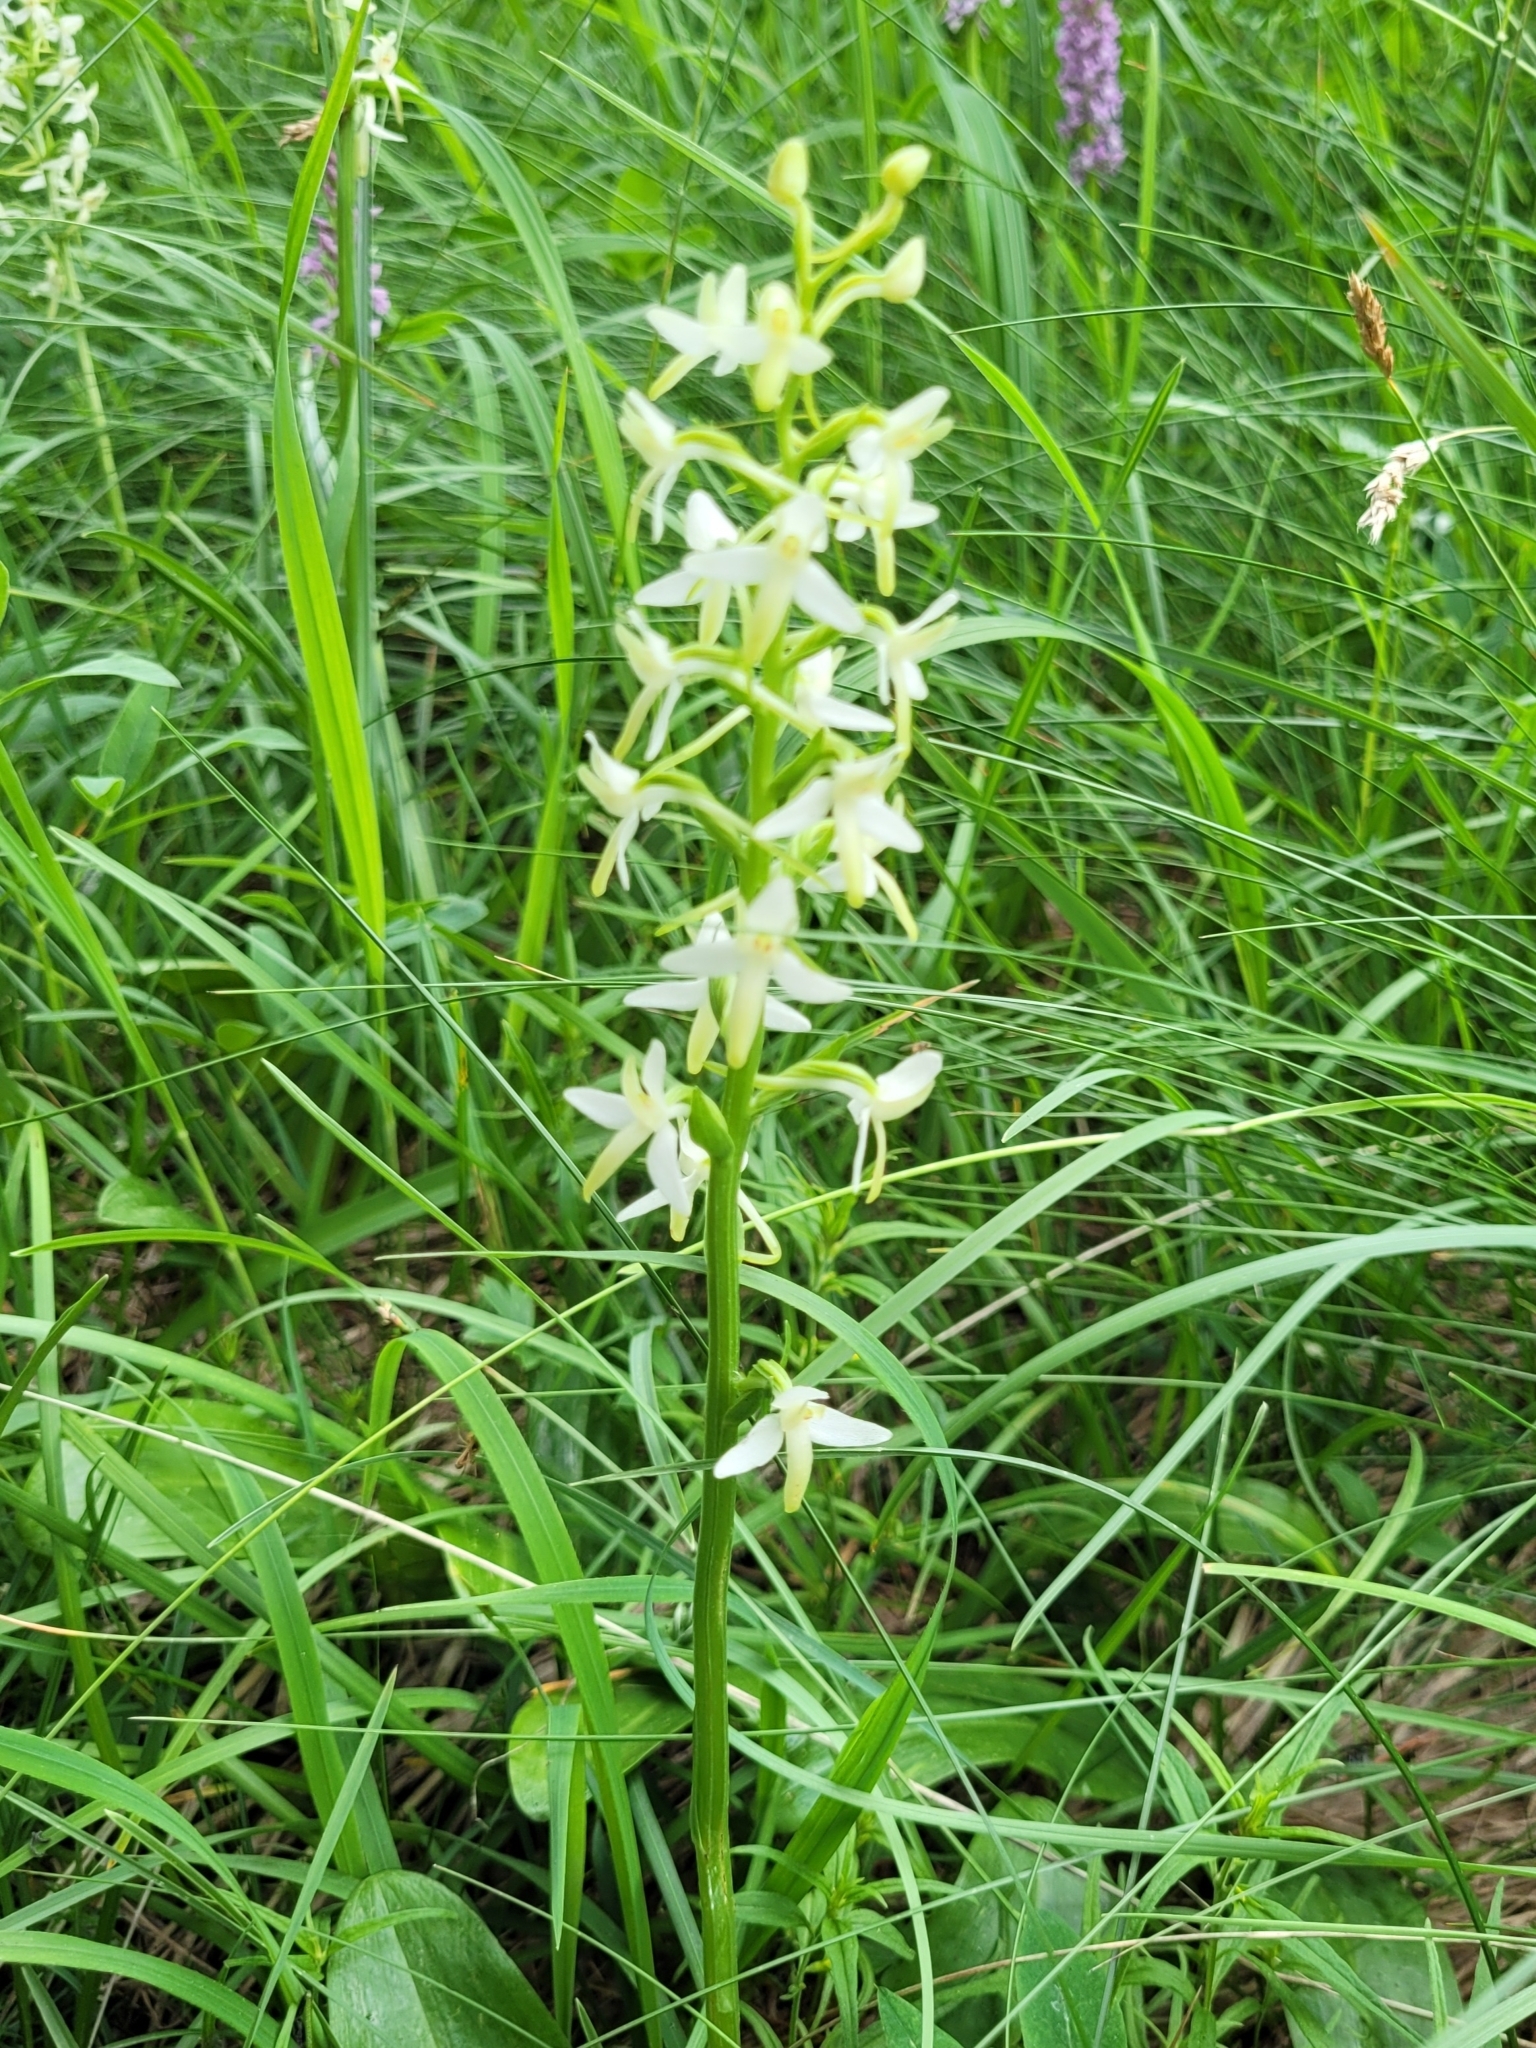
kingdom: Plantae
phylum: Tracheophyta
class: Liliopsida
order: Asparagales
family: Orchidaceae
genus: Platanthera
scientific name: Platanthera bifolia
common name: Lesser butterfly-orchid
